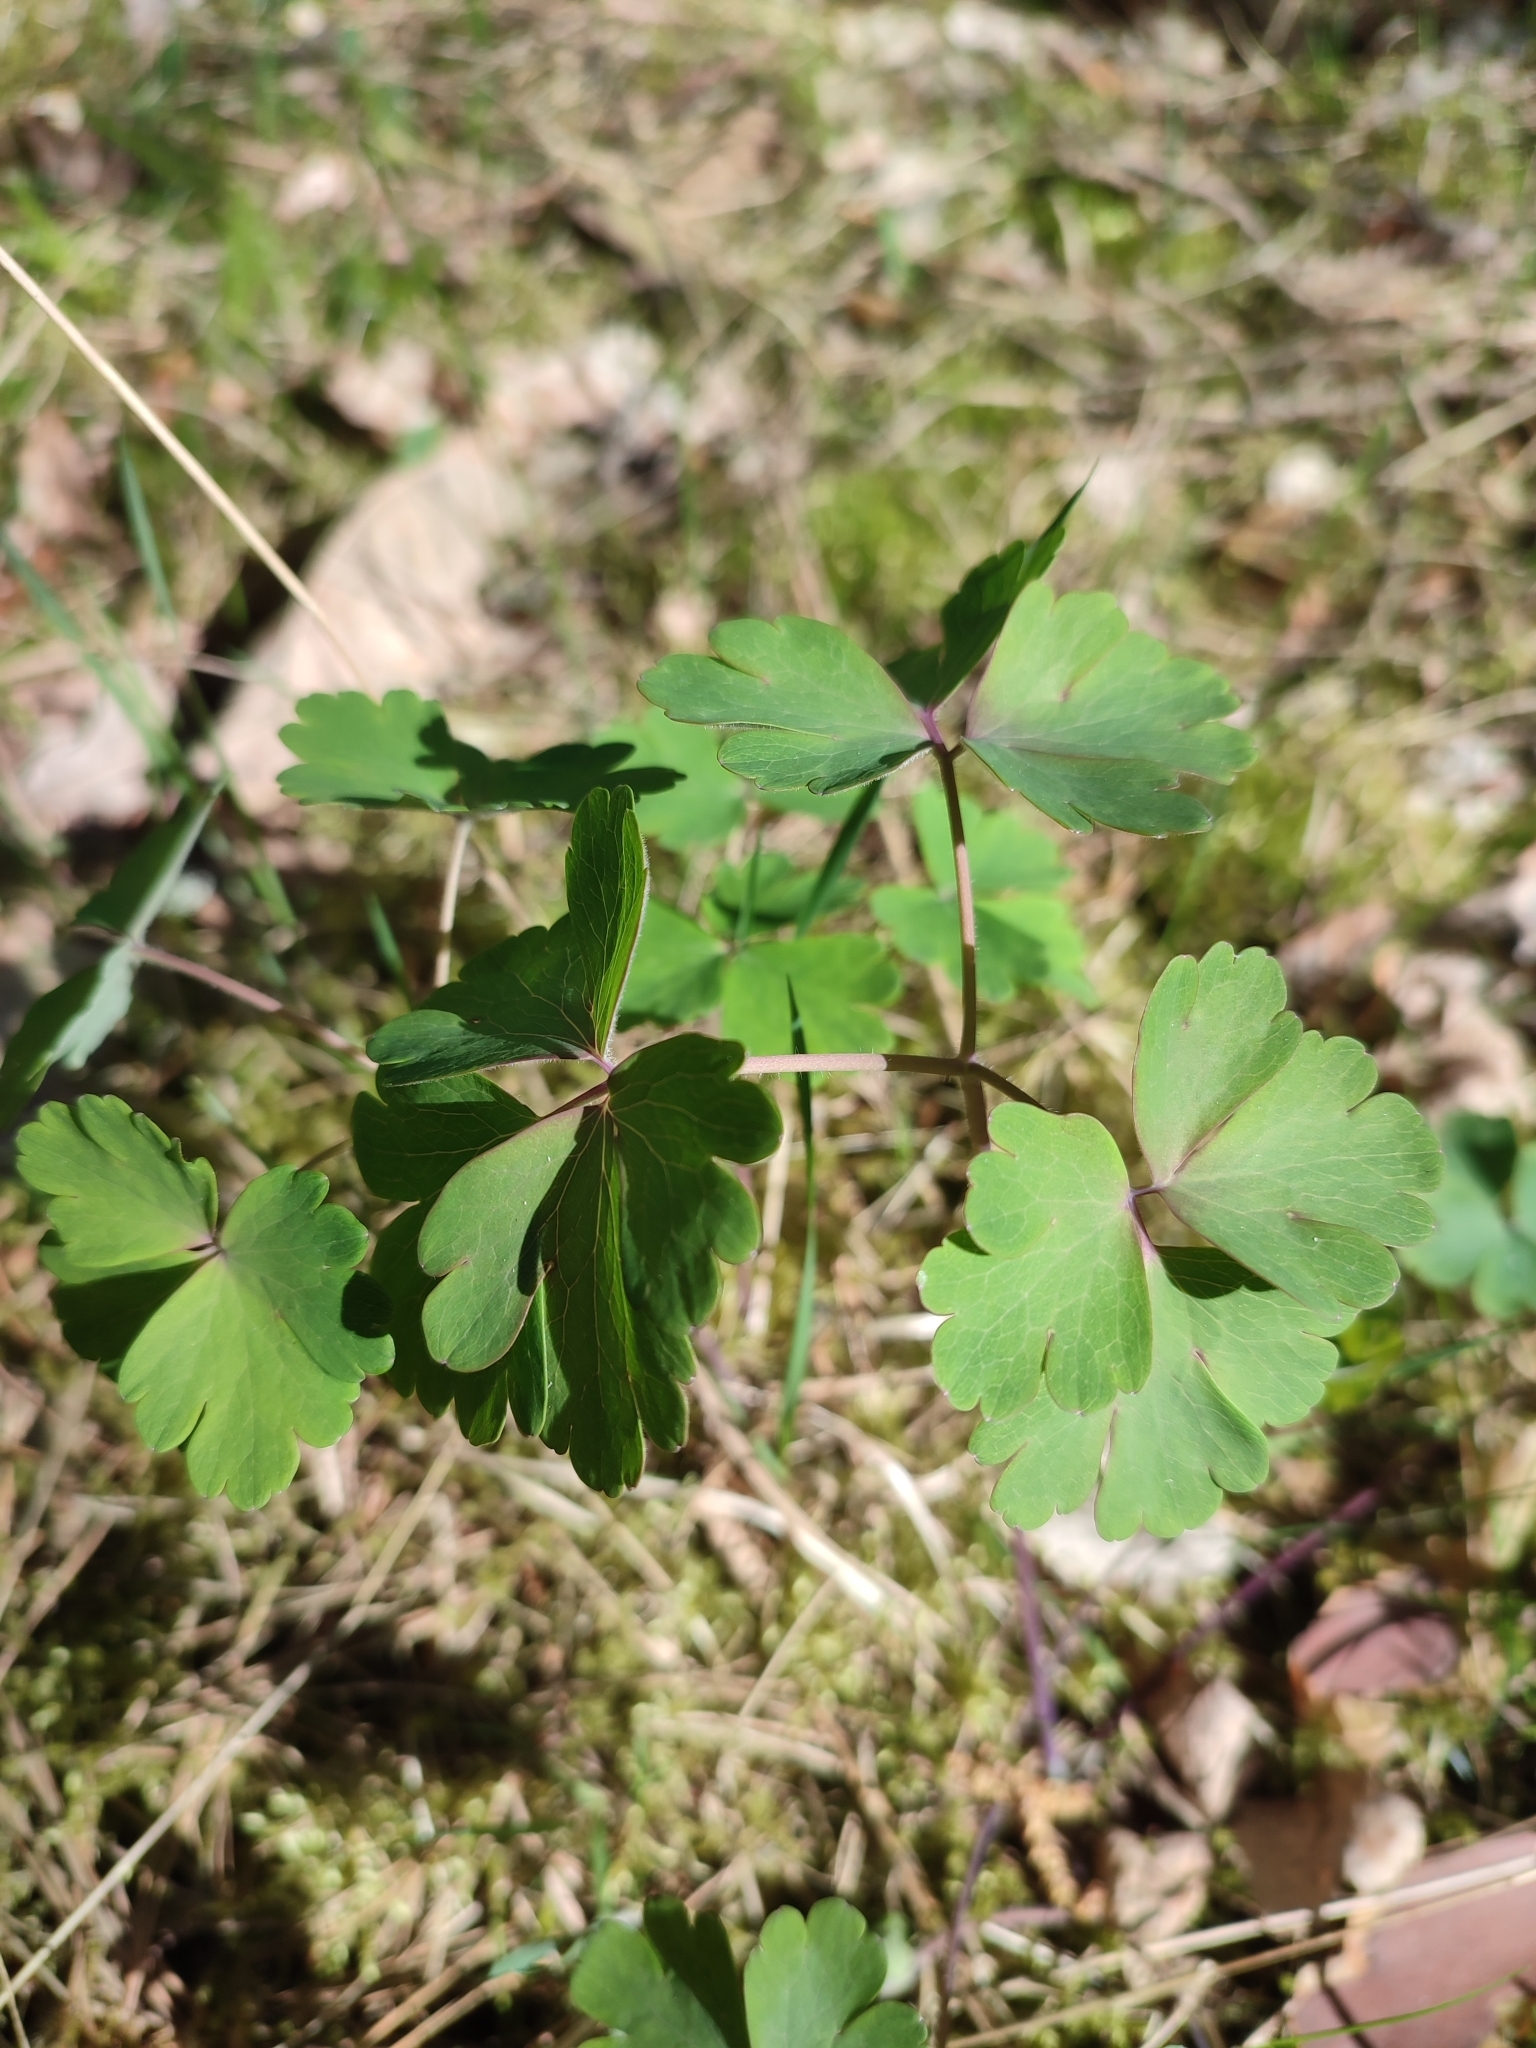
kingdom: Plantae
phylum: Tracheophyta
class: Magnoliopsida
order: Ranunculales
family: Ranunculaceae
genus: Aquilegia
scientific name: Aquilegia vulgaris
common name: Columbine
